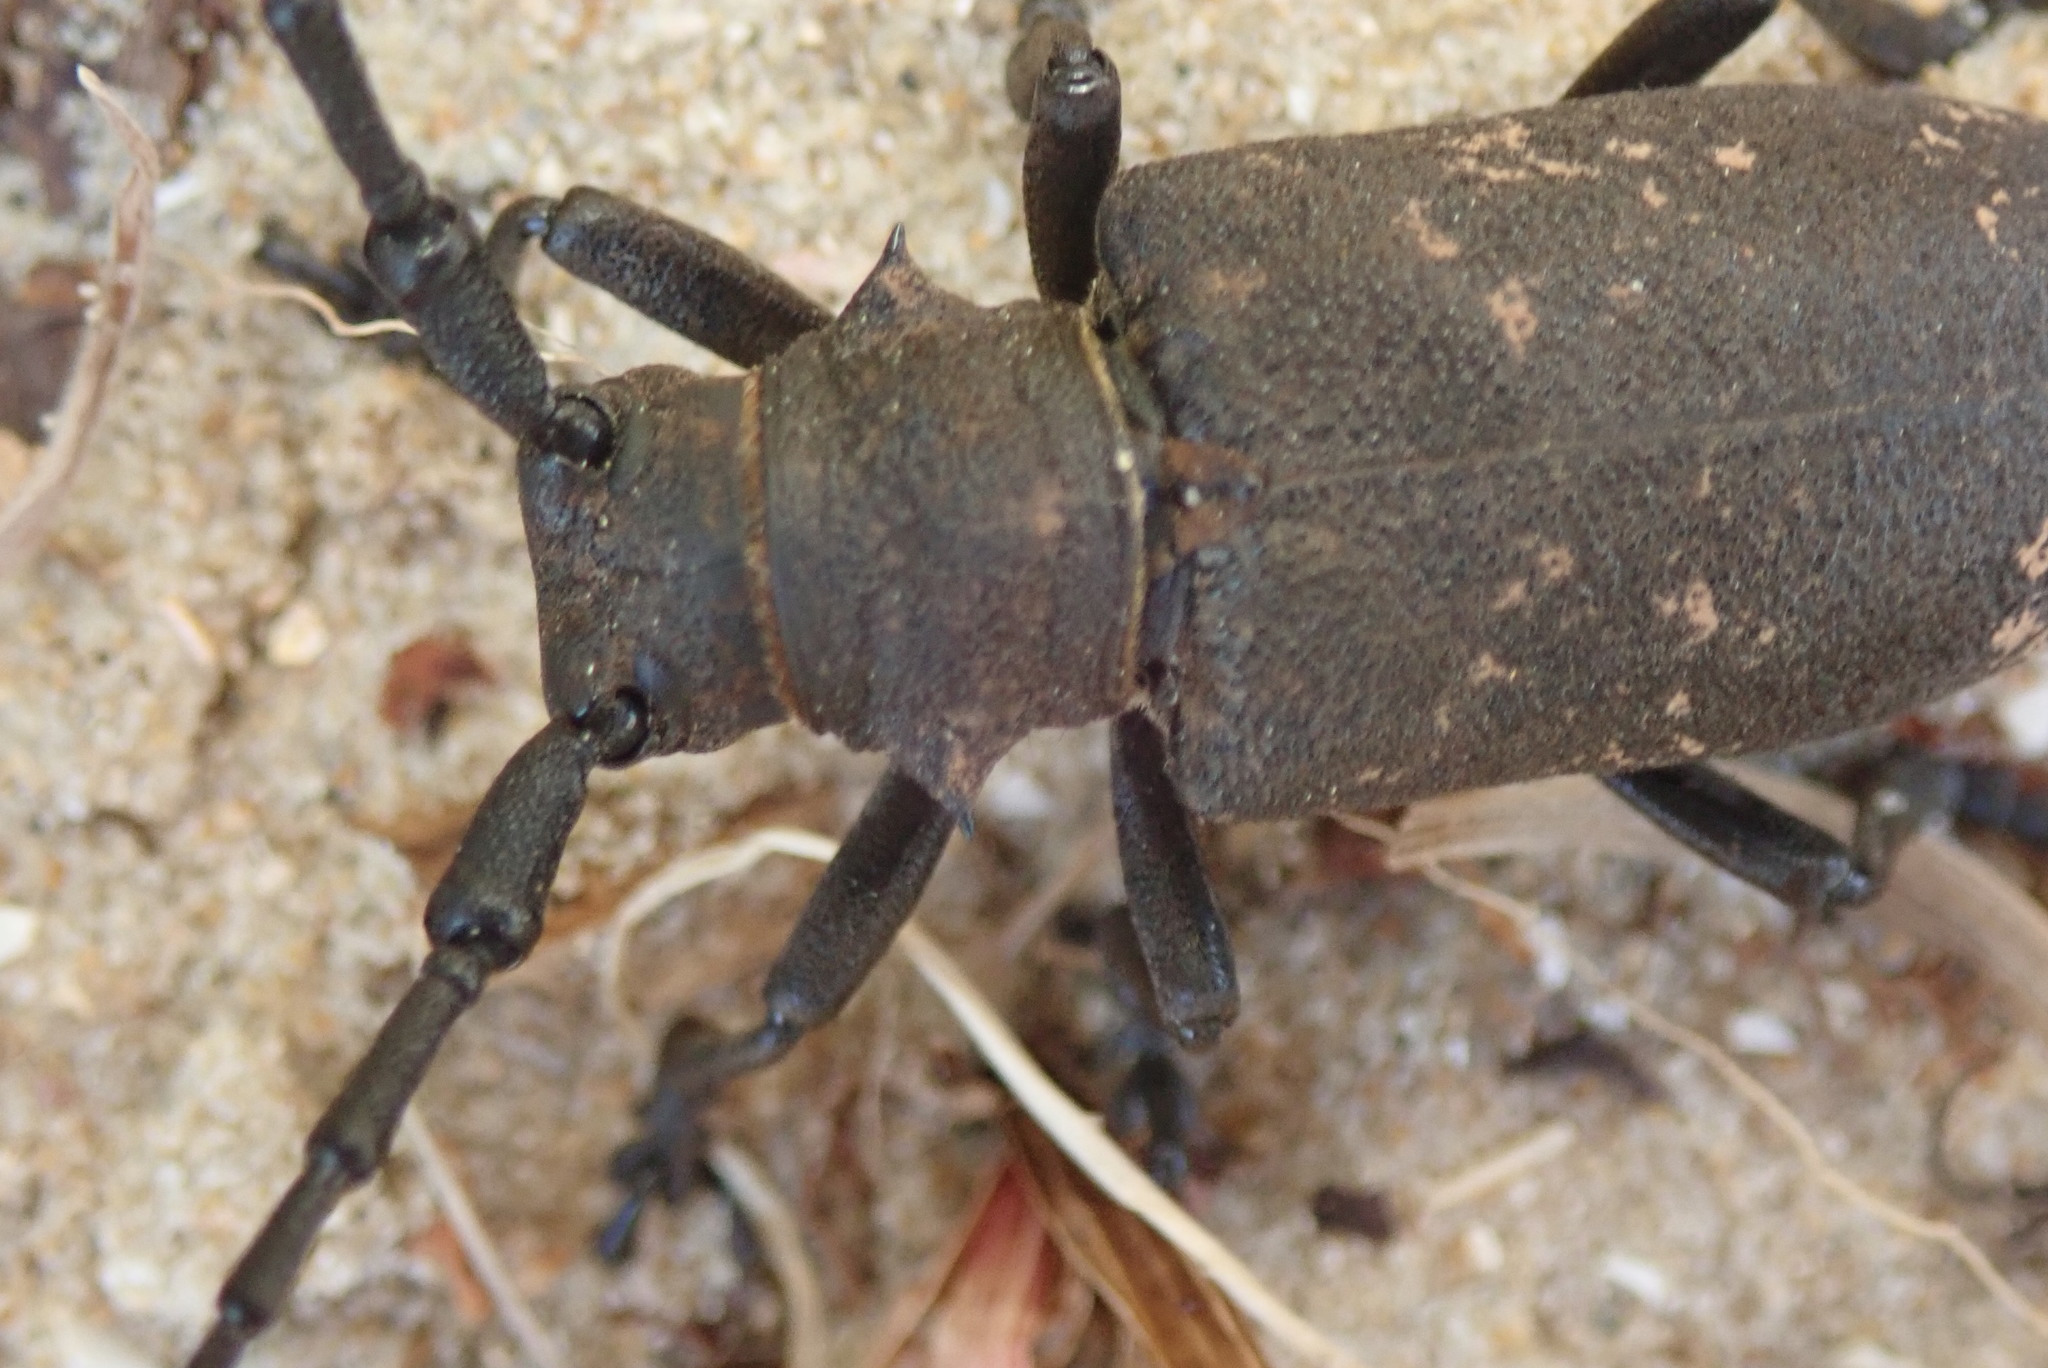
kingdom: Animalia
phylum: Arthropoda
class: Insecta
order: Coleoptera
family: Cerambycidae
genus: Lamia
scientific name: Lamia textor
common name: Weaver beetle
